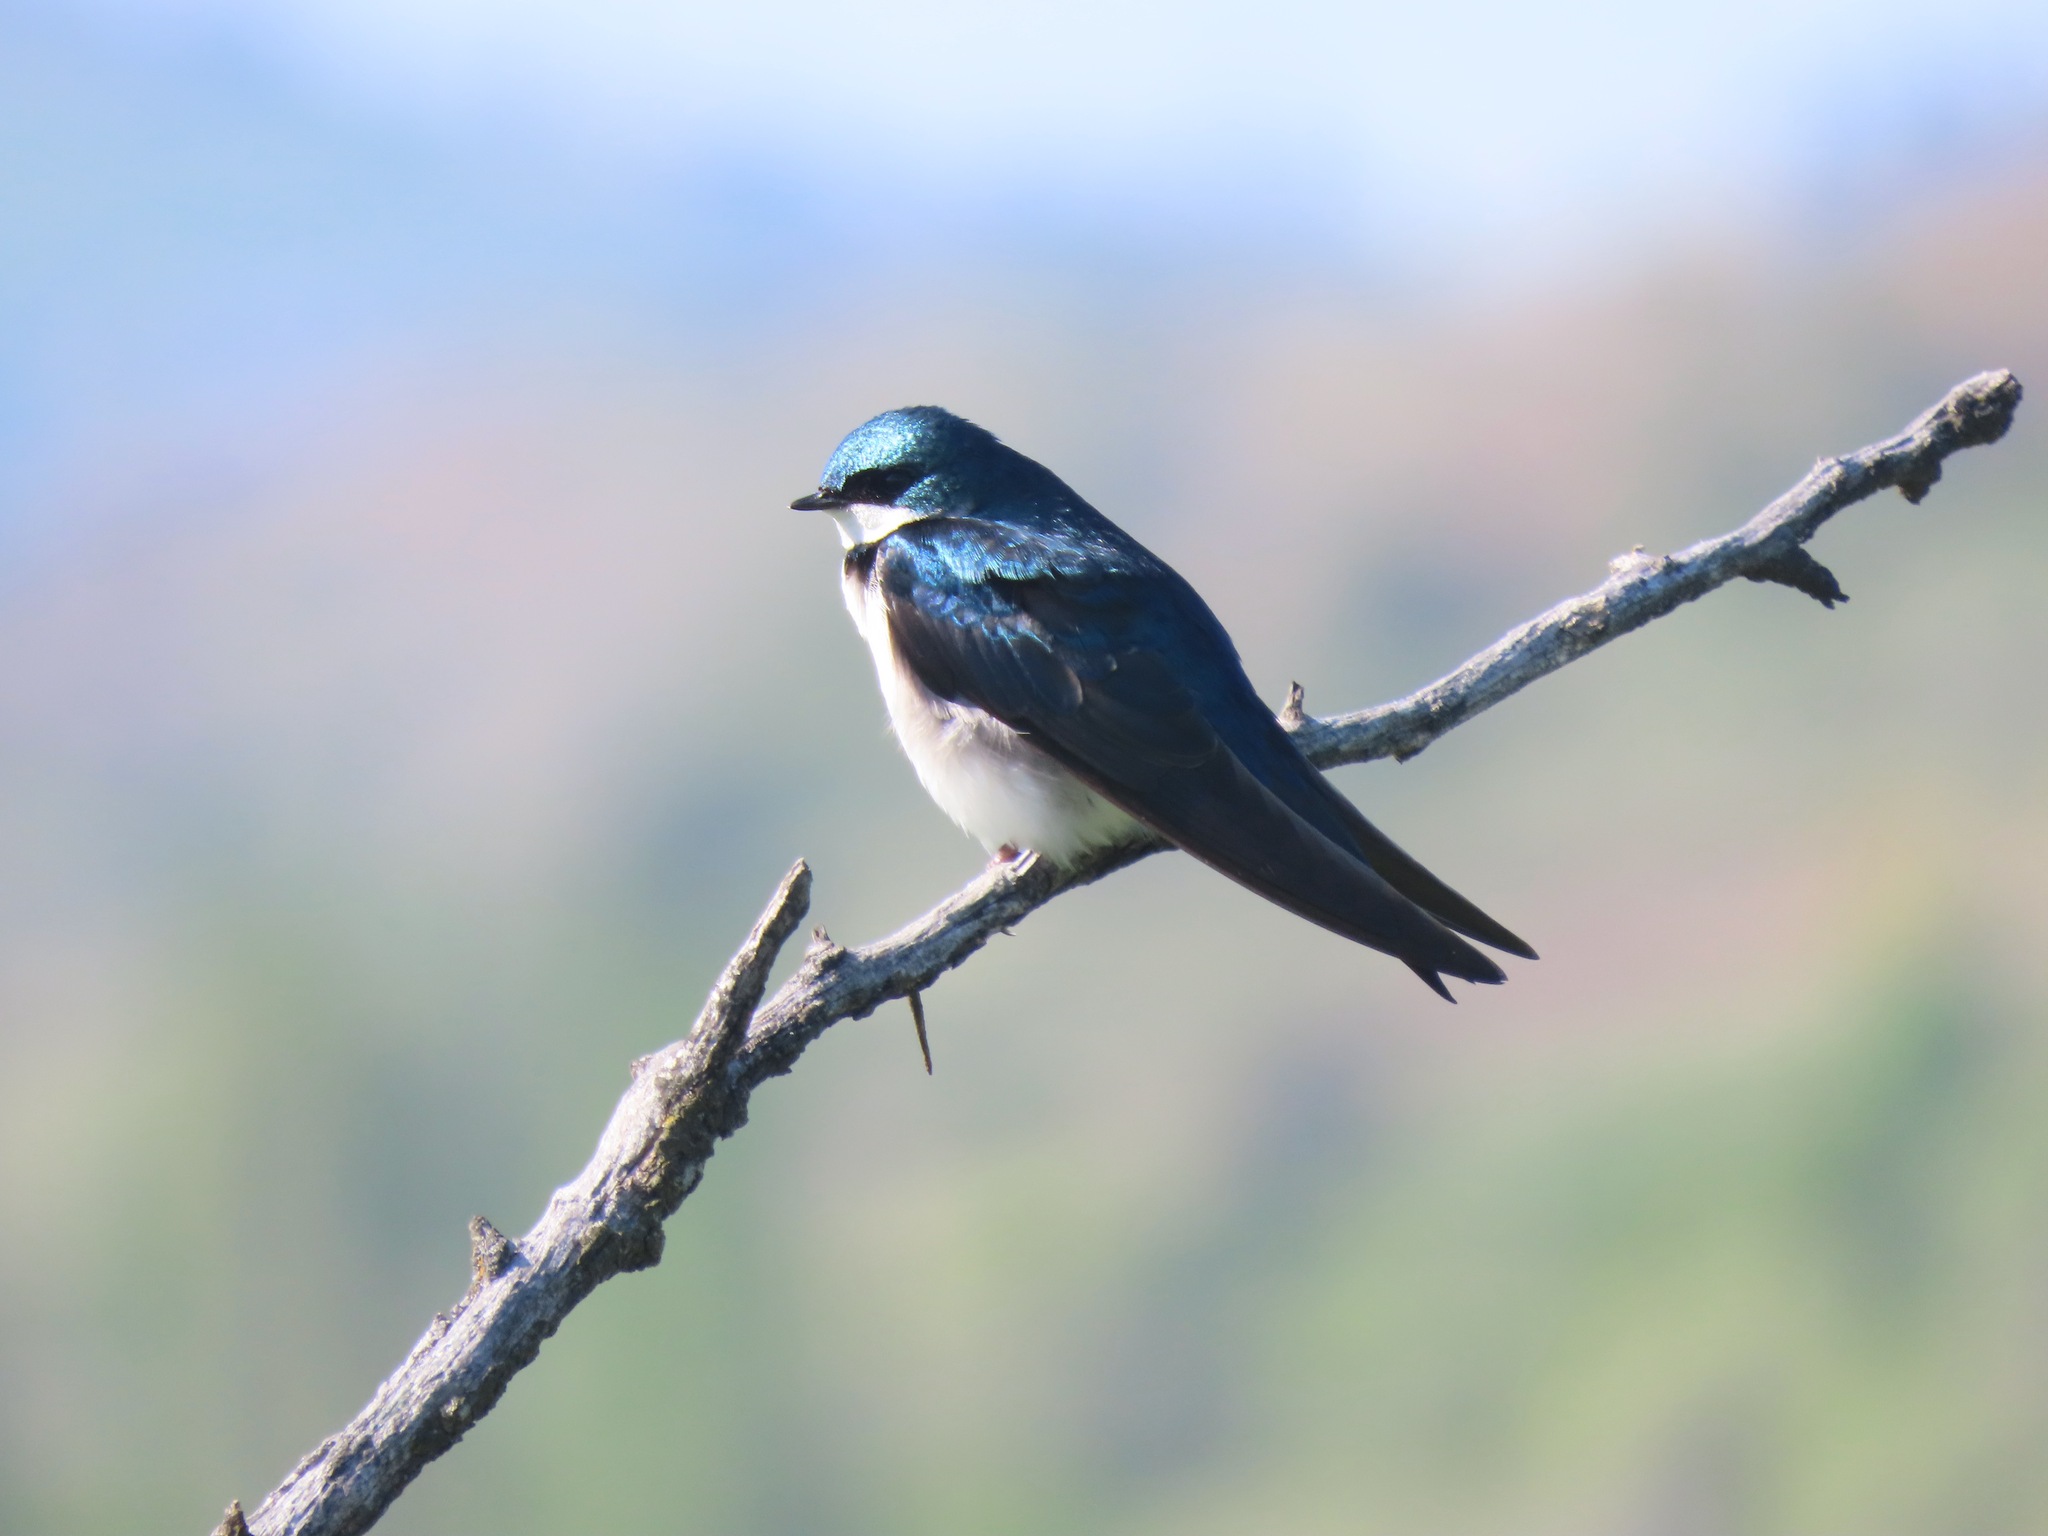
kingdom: Animalia
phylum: Chordata
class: Aves
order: Passeriformes
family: Hirundinidae
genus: Tachycineta
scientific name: Tachycineta bicolor
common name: Tree swallow
